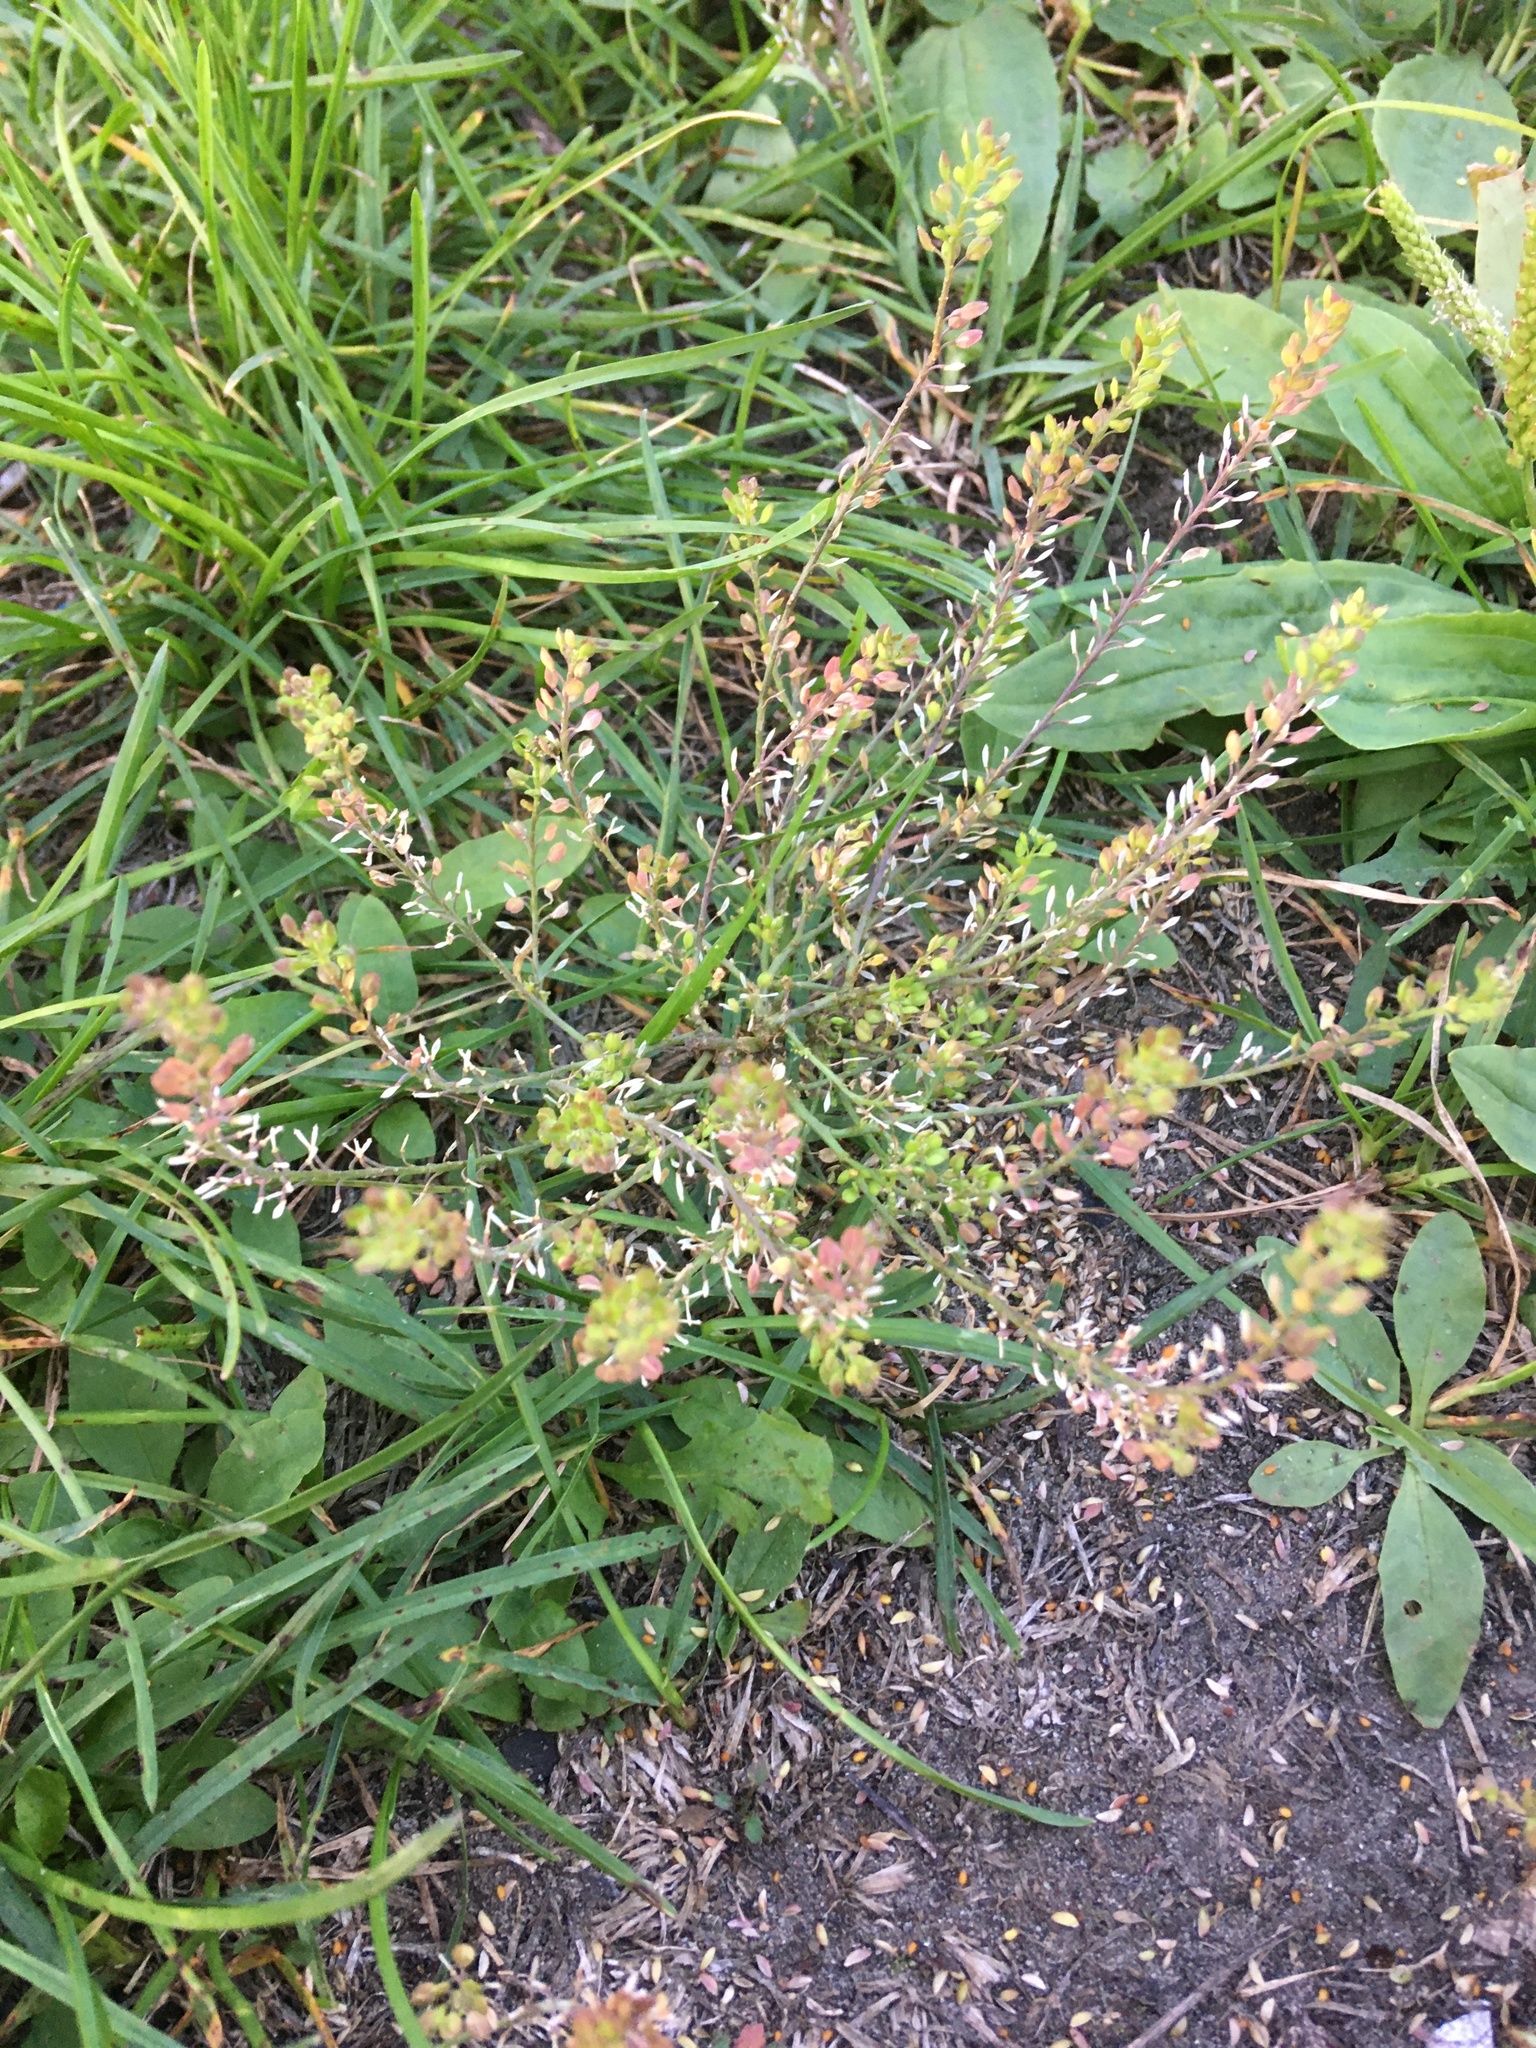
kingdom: Plantae
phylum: Tracheophyta
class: Magnoliopsida
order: Brassicales
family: Brassicaceae
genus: Lepidium
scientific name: Lepidium apetalum
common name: Pepperweed
